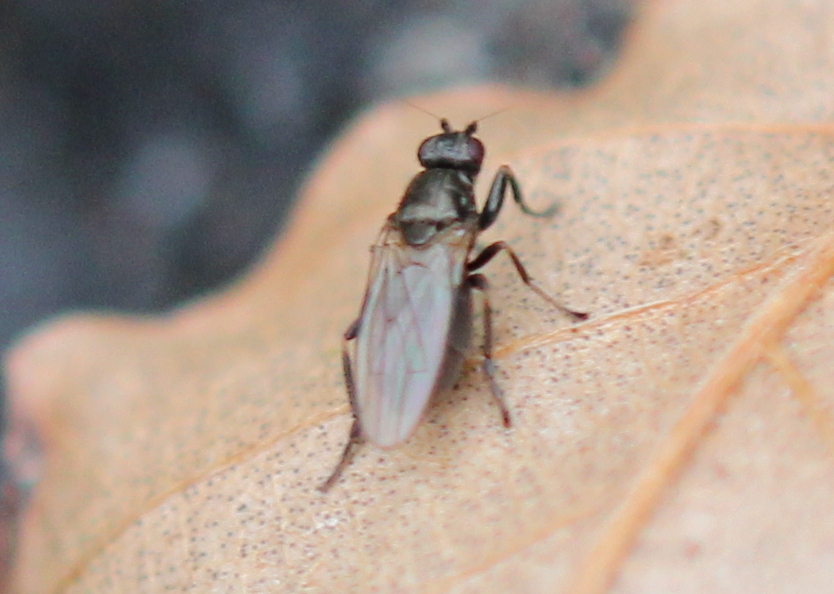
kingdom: Animalia
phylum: Arthropoda
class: Insecta
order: Diptera
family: Sphaeroceridae
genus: Lotophila
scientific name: Lotophila atra
